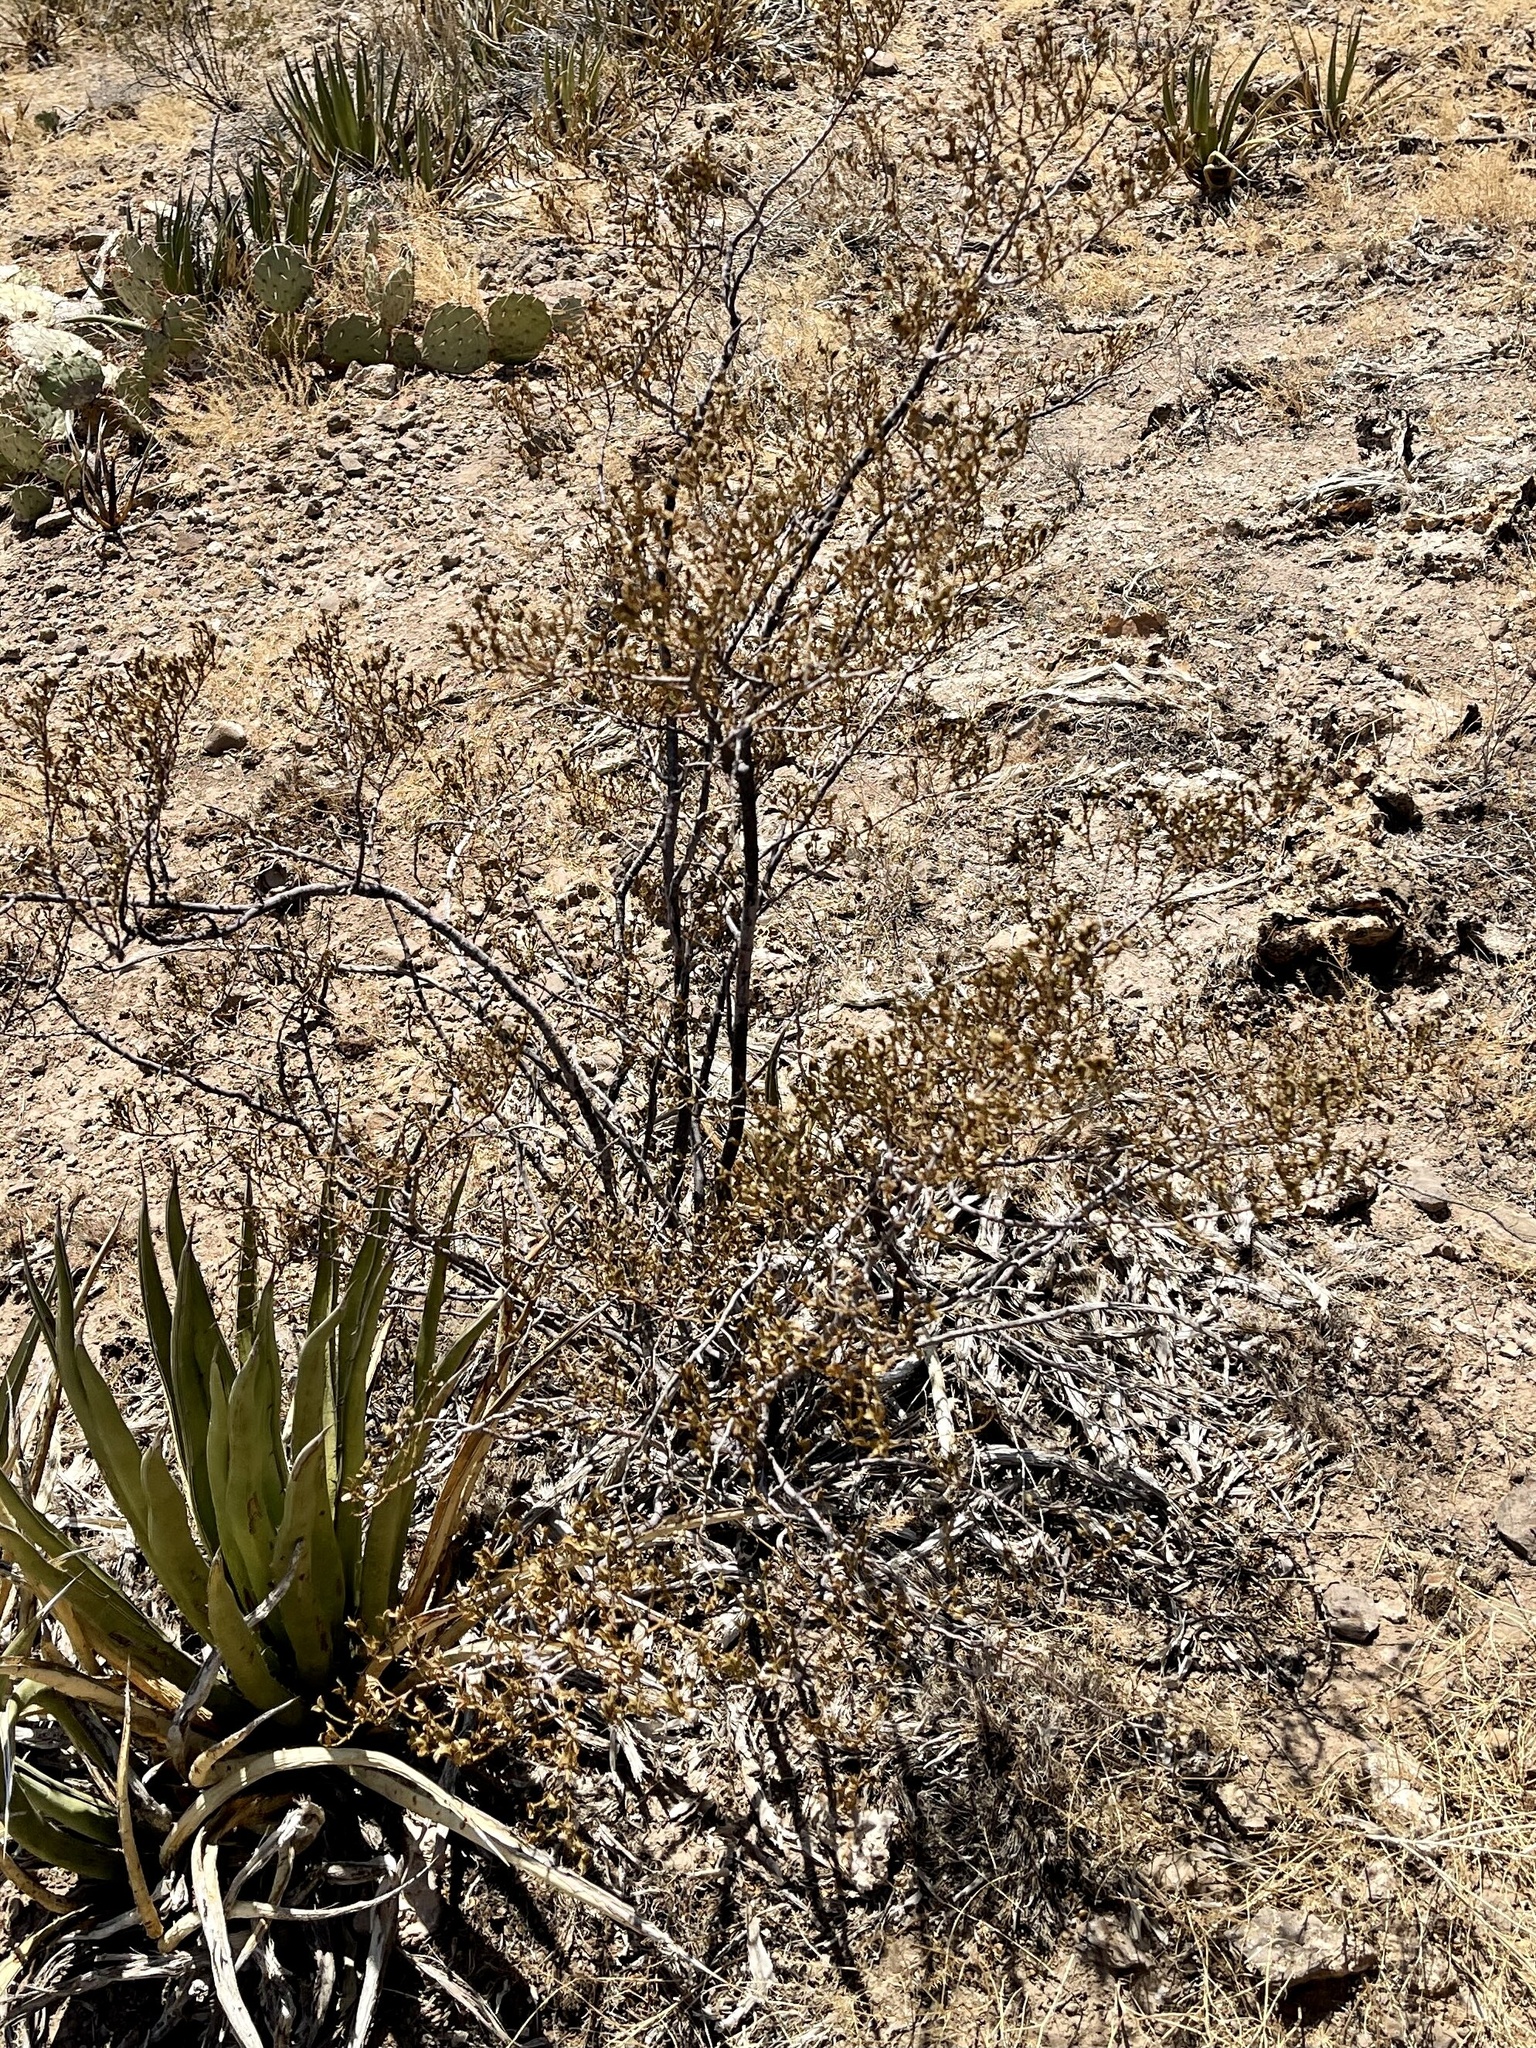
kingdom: Plantae
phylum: Tracheophyta
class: Magnoliopsida
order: Zygophyllales
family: Zygophyllaceae
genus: Larrea
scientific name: Larrea tridentata
